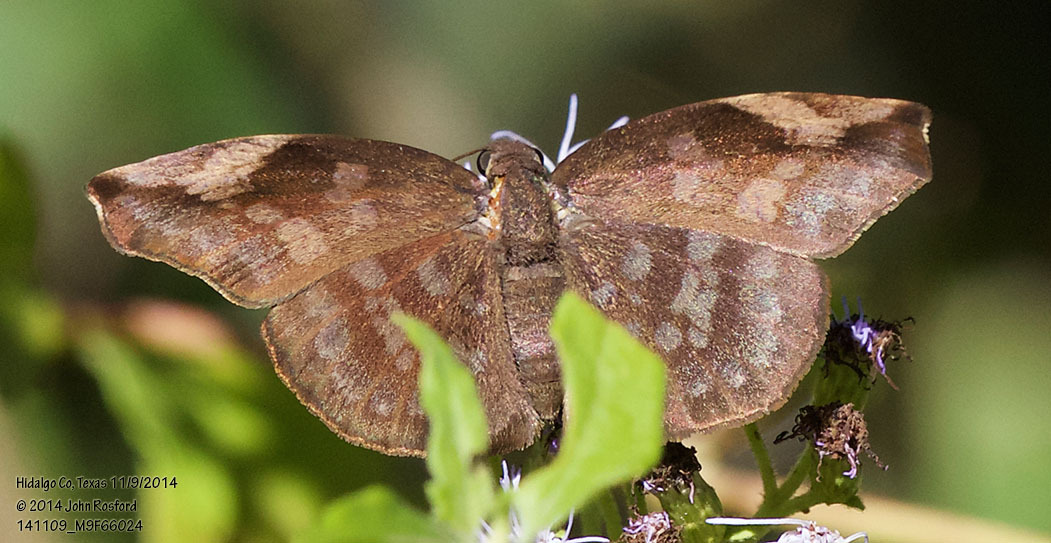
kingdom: Animalia
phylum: Arthropoda
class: Insecta
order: Lepidoptera
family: Hesperiidae
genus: Achlyodes
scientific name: Achlyodes thraso
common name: Sickle-winged skipper
